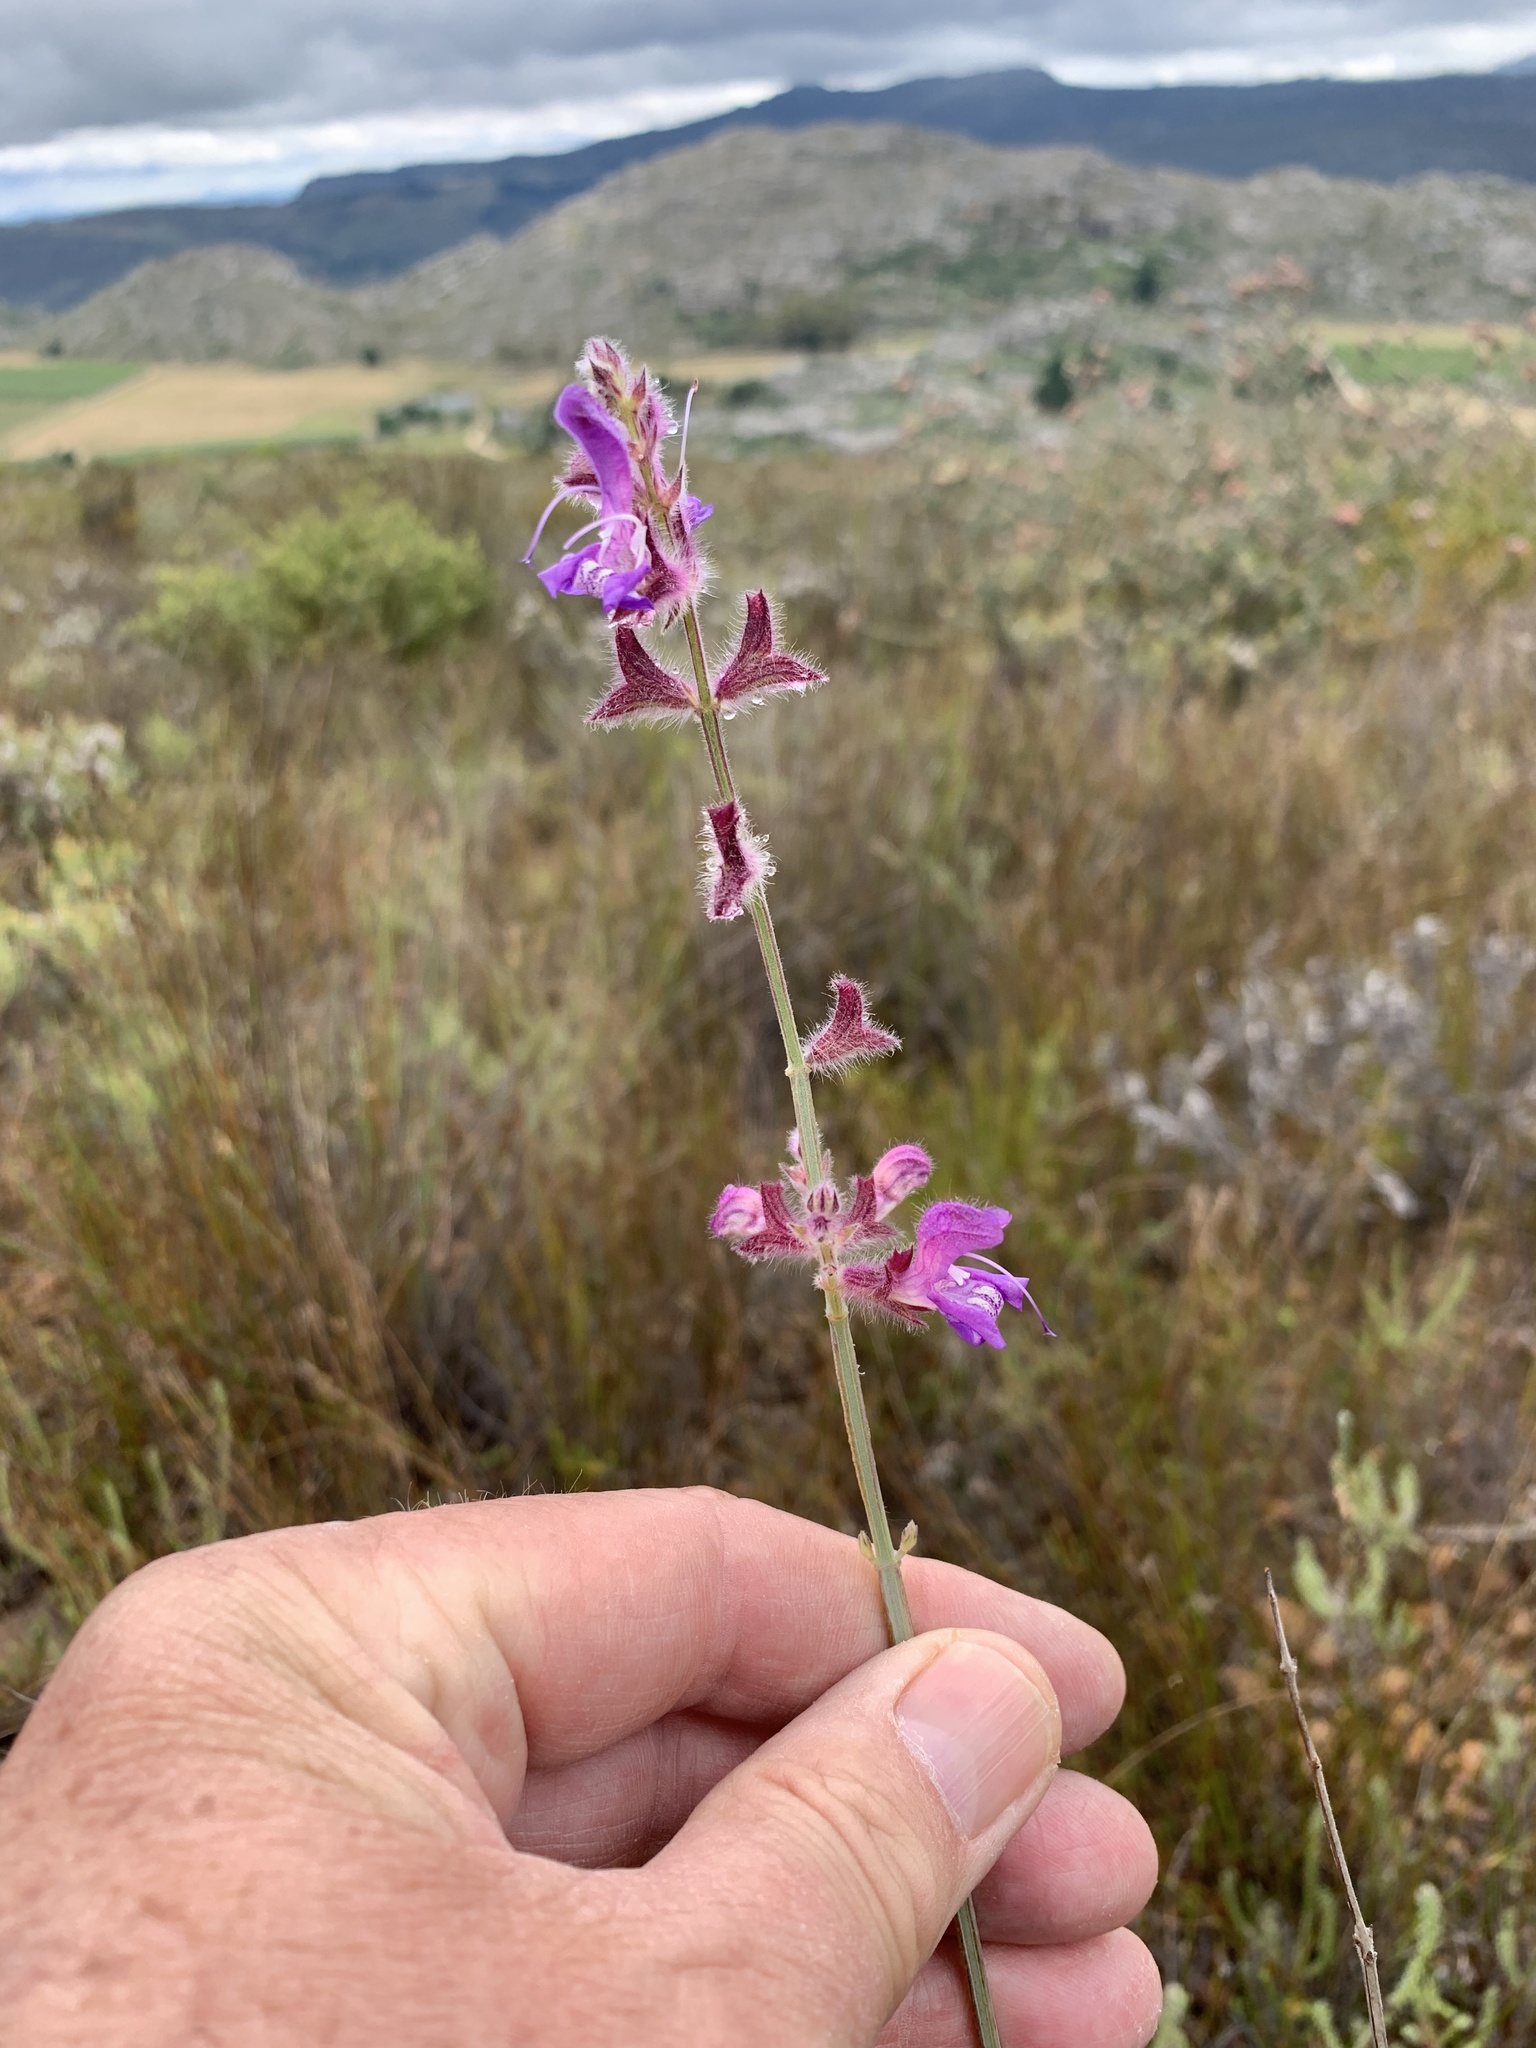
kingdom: Plantae
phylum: Tracheophyta
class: Magnoliopsida
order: Lamiales
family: Lamiaceae
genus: Salvia
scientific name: Salvia albicaulis
